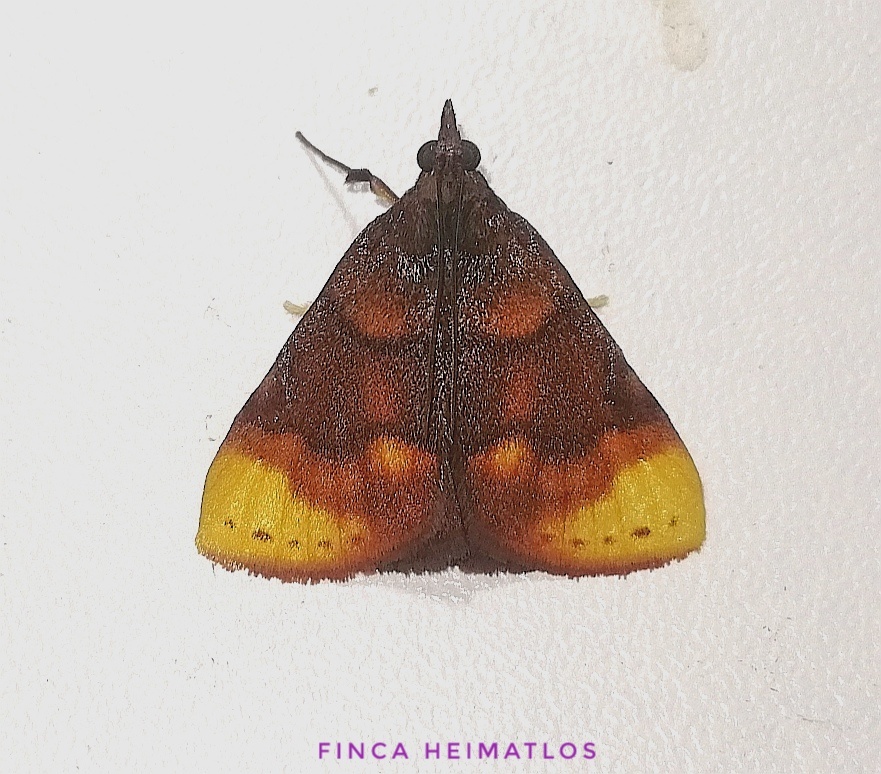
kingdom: Animalia
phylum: Arthropoda
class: Insecta
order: Lepidoptera
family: Pyralidae
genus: Paramacna
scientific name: Paramacna nattereri
